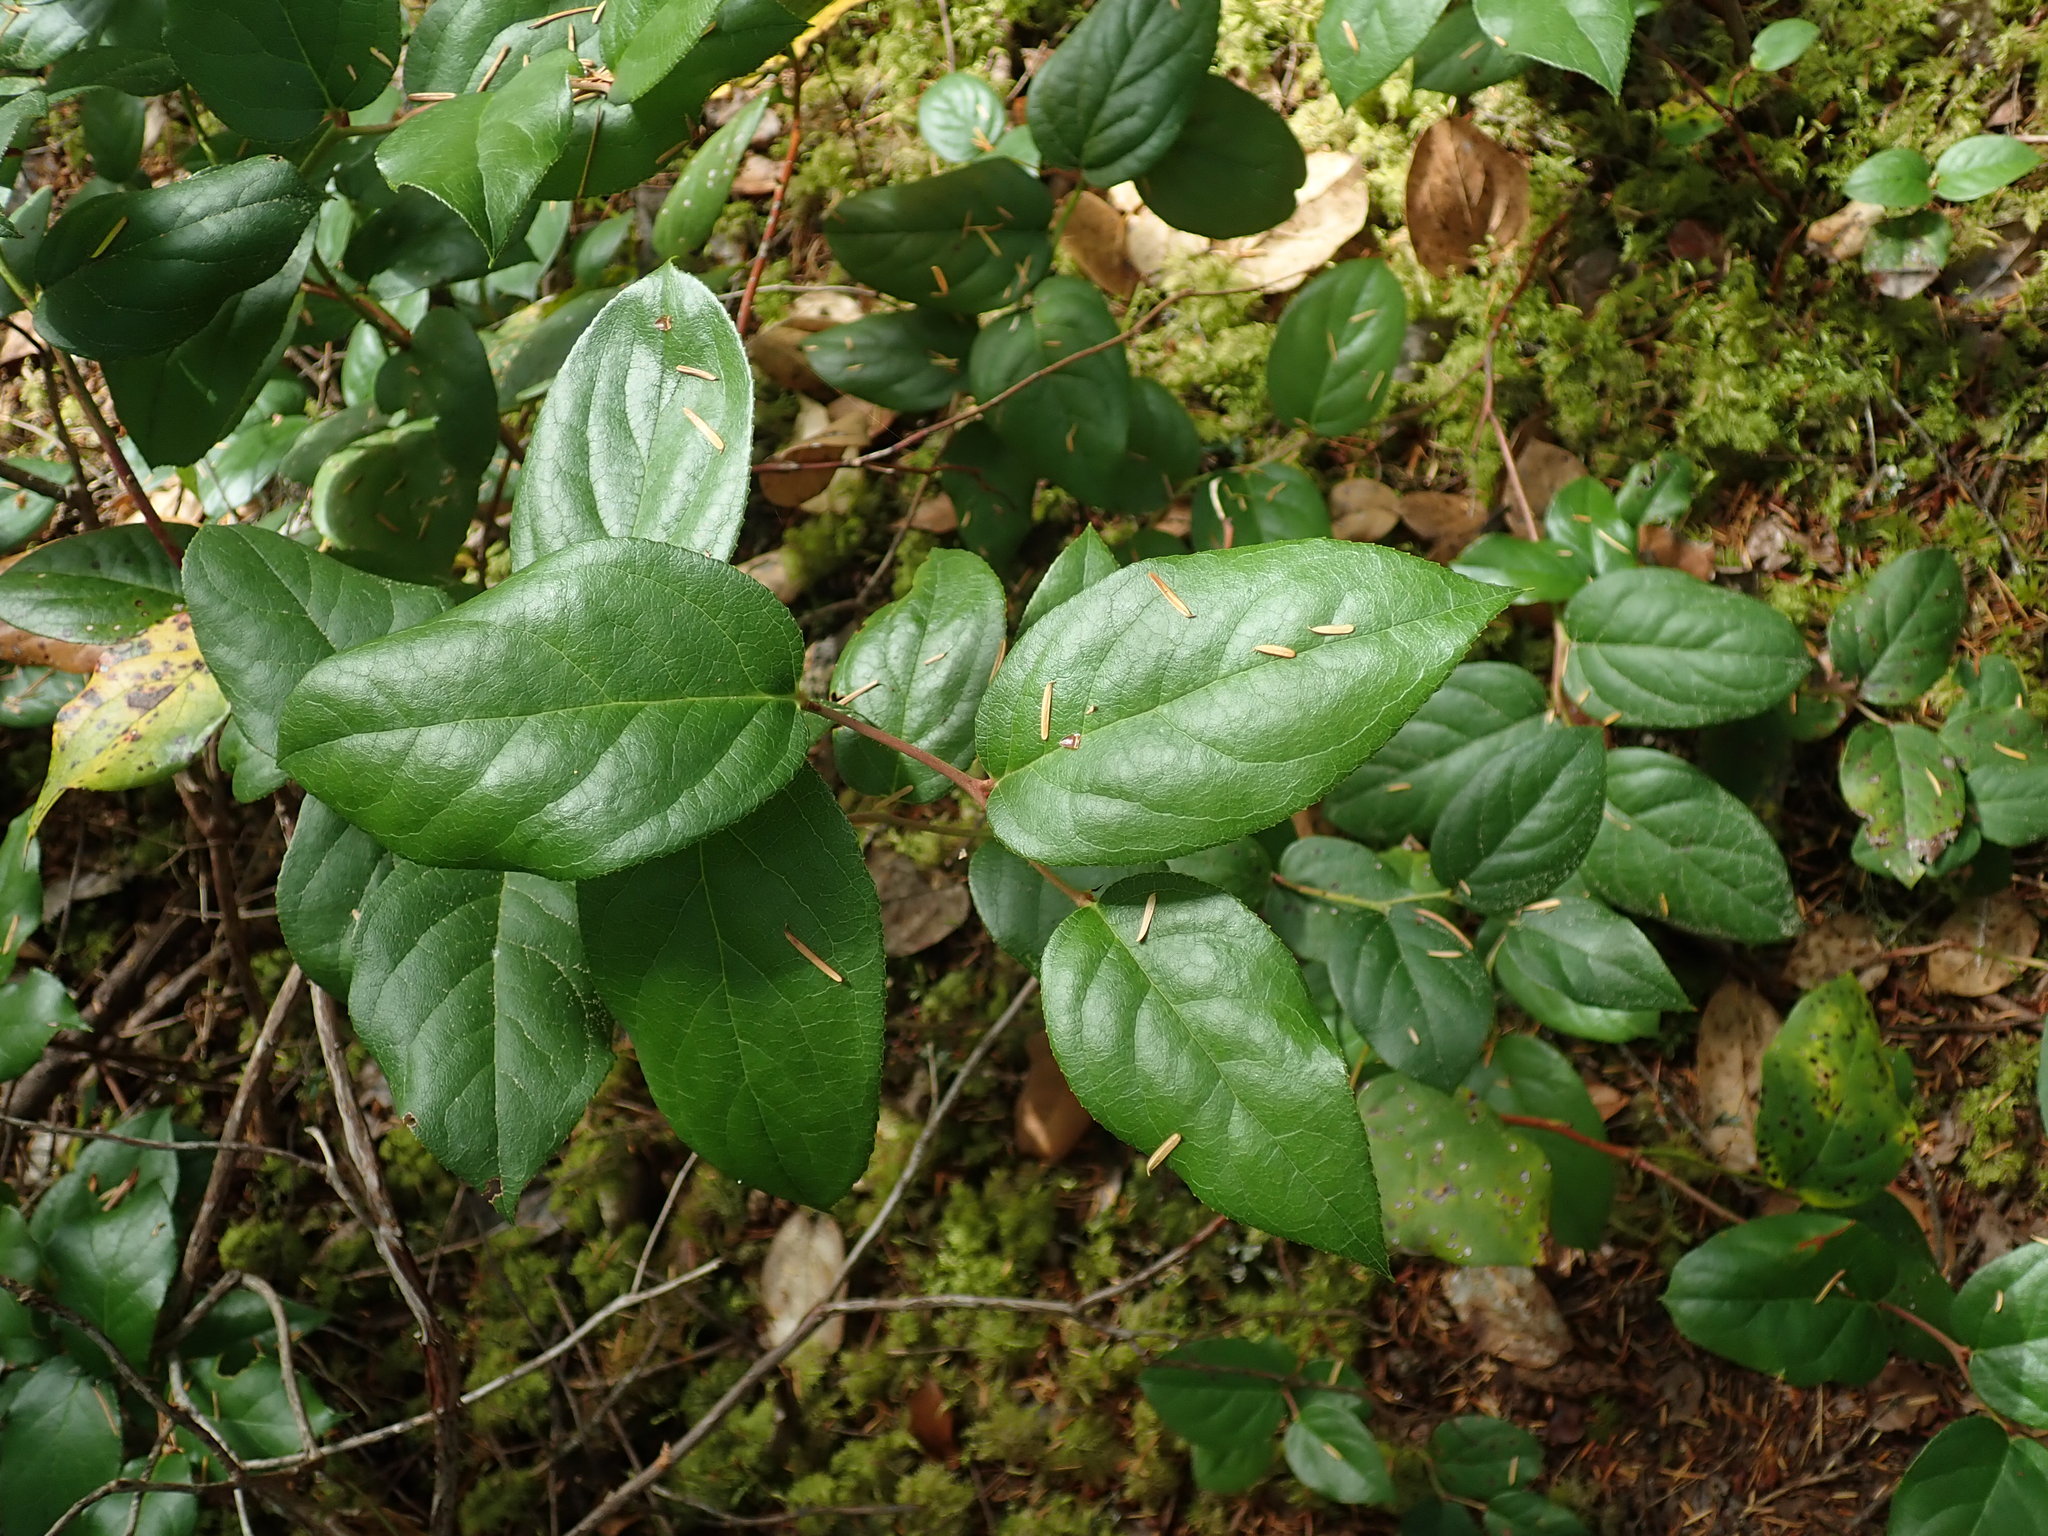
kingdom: Plantae
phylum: Tracheophyta
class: Magnoliopsida
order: Ericales
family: Ericaceae
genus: Gaultheria
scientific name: Gaultheria shallon
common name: Shallon
